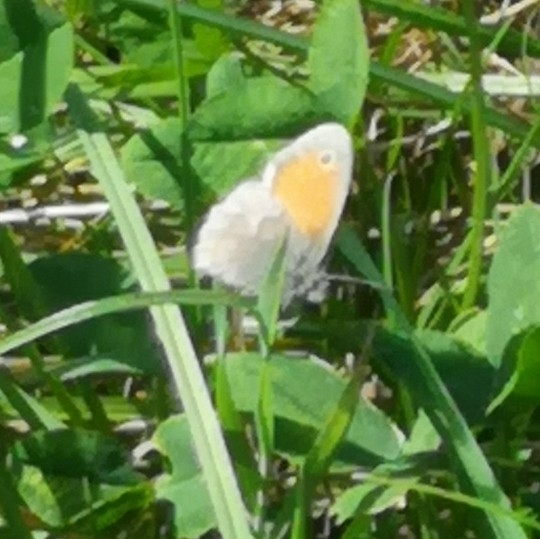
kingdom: Animalia
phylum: Arthropoda
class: Insecta
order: Lepidoptera
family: Nymphalidae
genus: Coenonympha
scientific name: Coenonympha pamphilus
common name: Small heath
